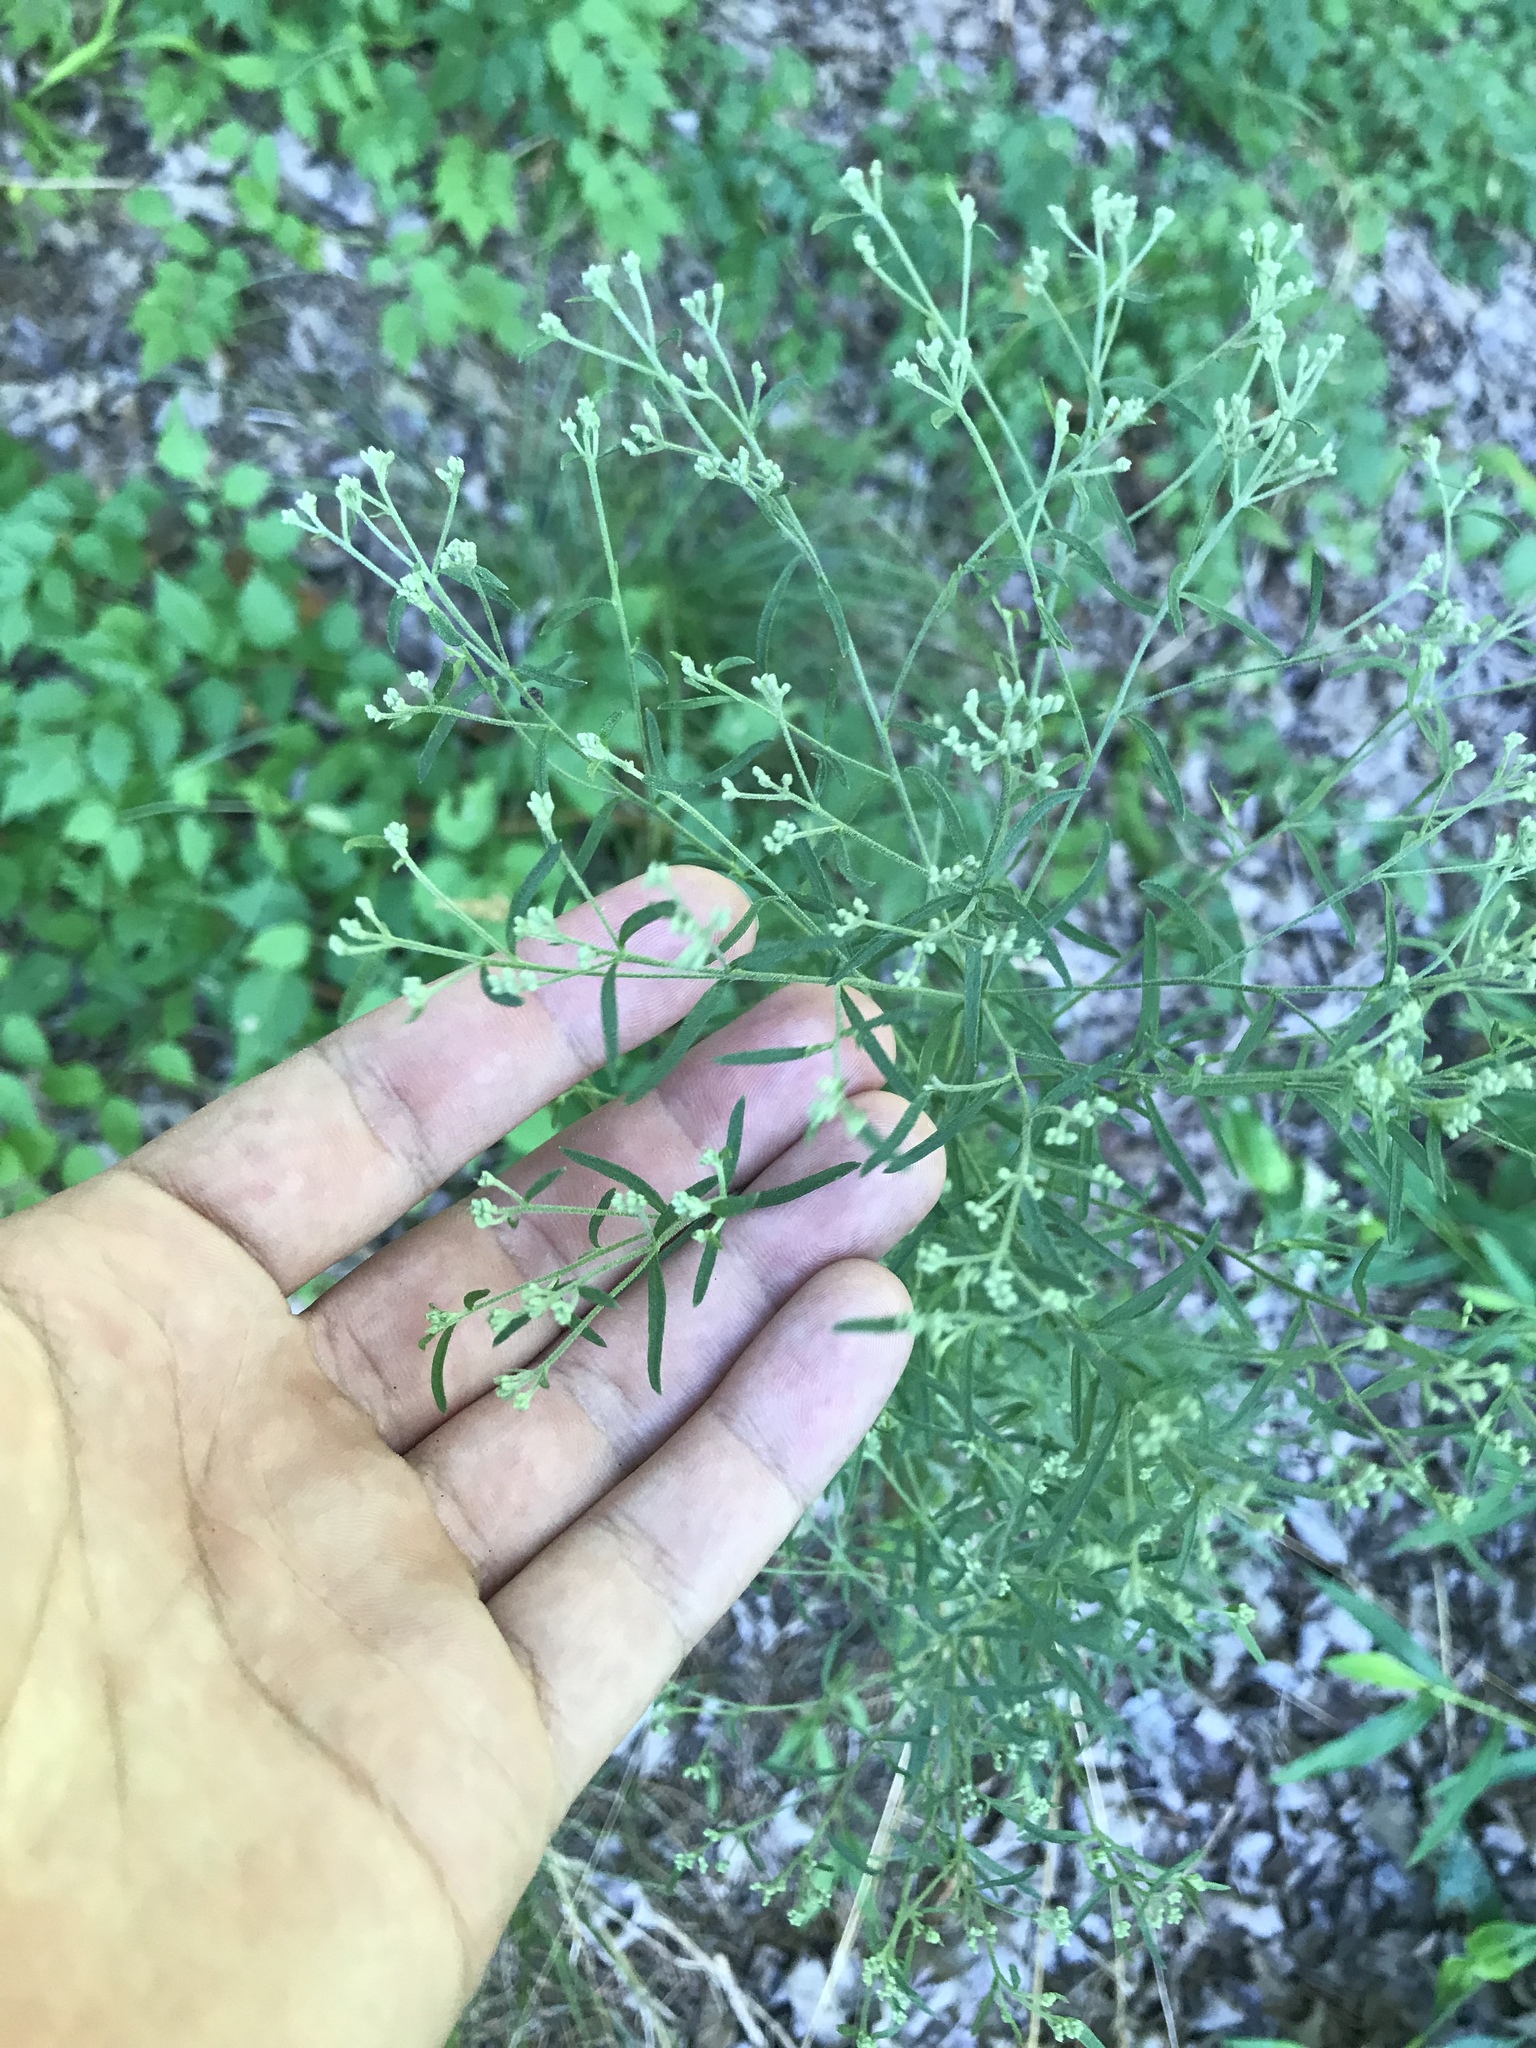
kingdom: Plantae
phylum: Tracheophyta
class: Magnoliopsida
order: Asterales
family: Asteraceae
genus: Eupatorium
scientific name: Eupatorium hyssopifolium
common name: Hyssop-leaf thoroughwort
